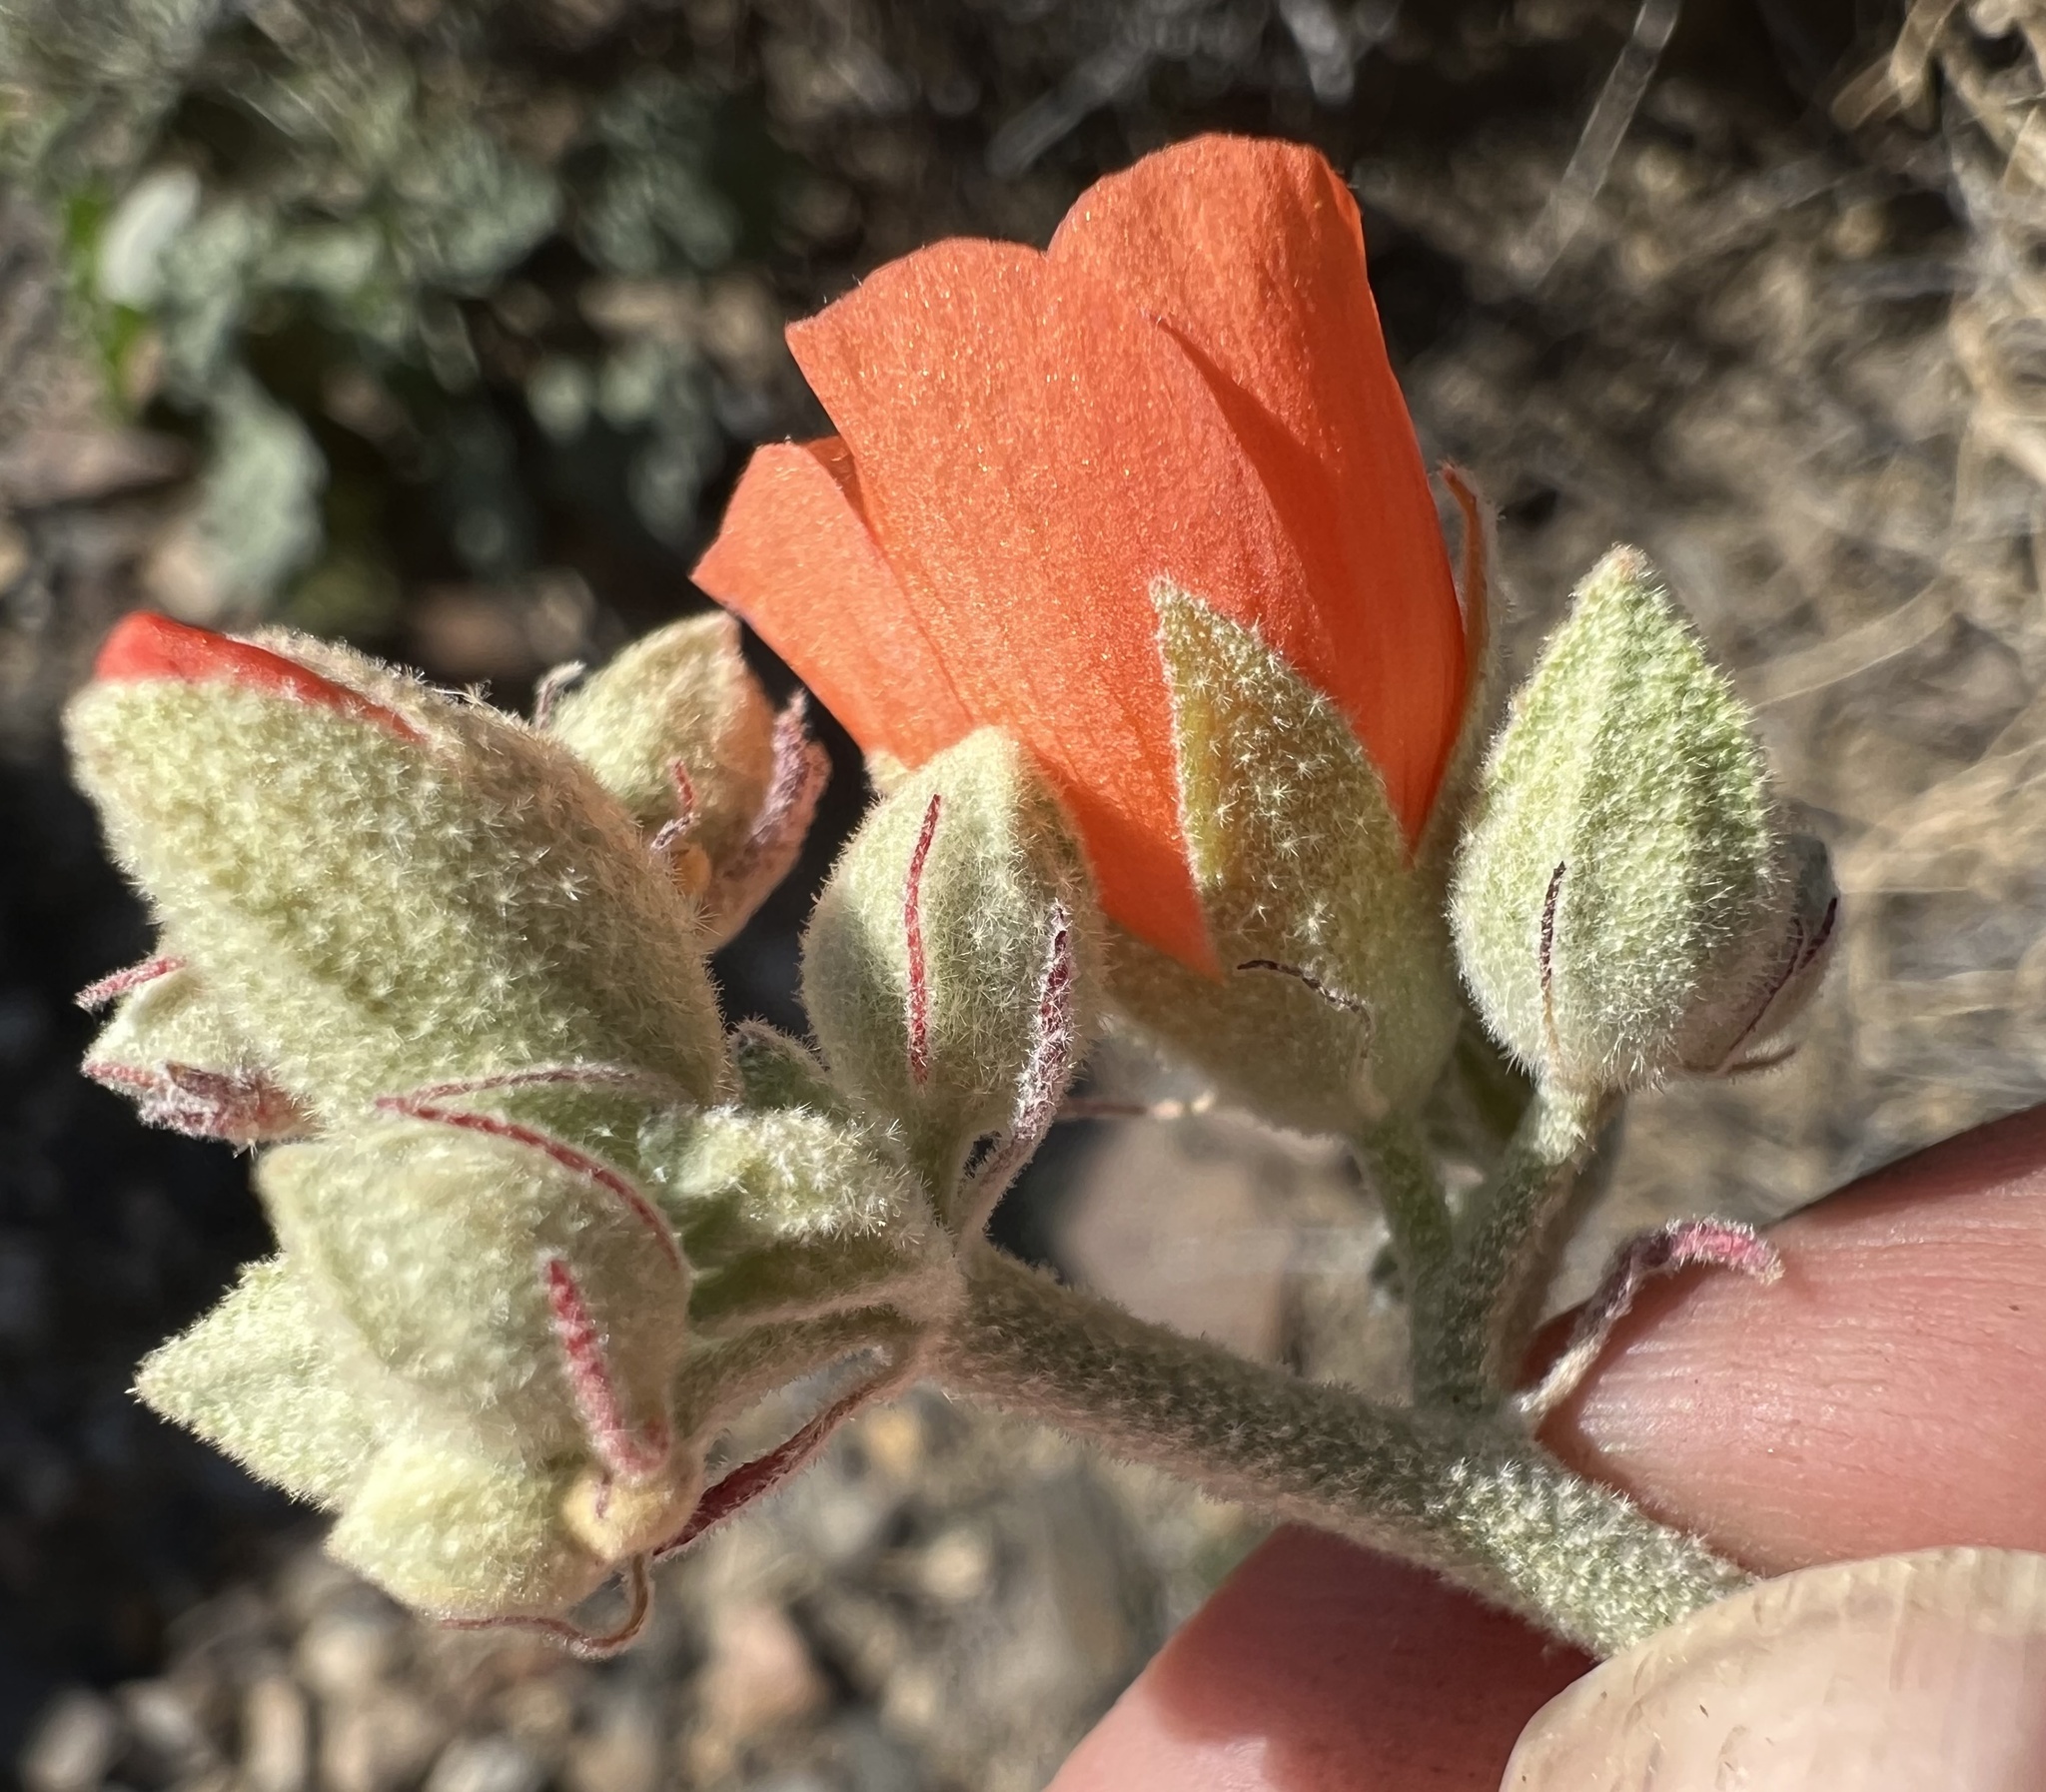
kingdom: Plantae
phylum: Tracheophyta
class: Magnoliopsida
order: Malvales
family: Malvaceae
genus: Sphaeralcea
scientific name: Sphaeralcea ambigua
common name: Apricot globe-mallow
